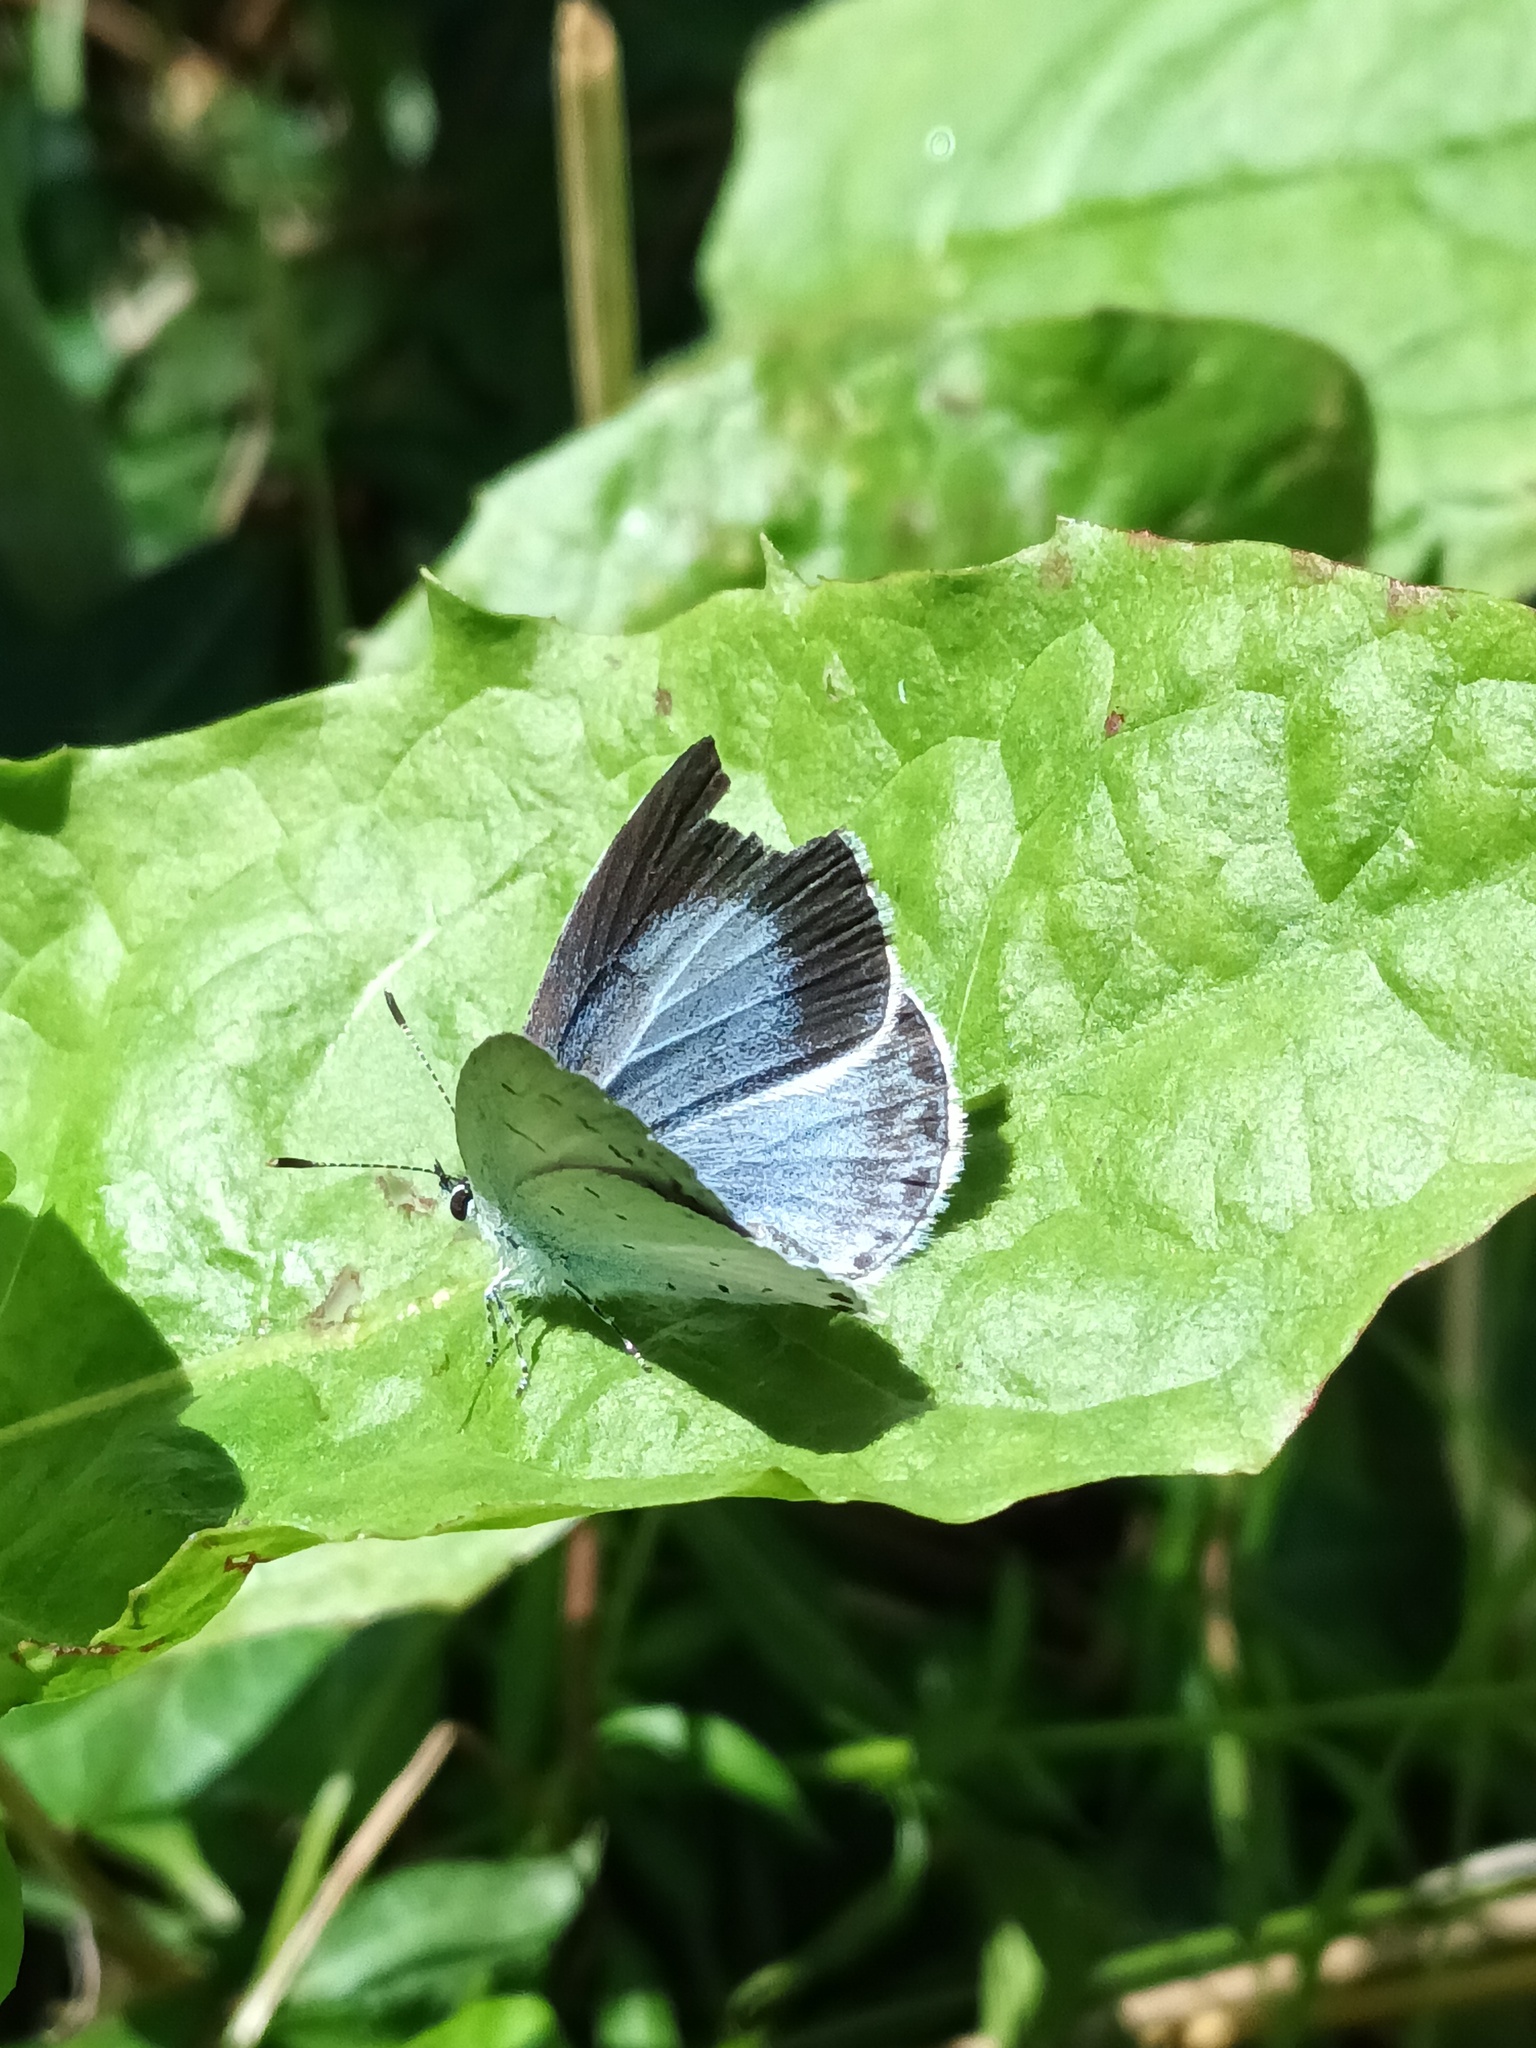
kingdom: Animalia
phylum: Arthropoda
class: Insecta
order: Lepidoptera
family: Lycaenidae
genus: Celastrina
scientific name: Celastrina argiolus
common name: Holly blue
